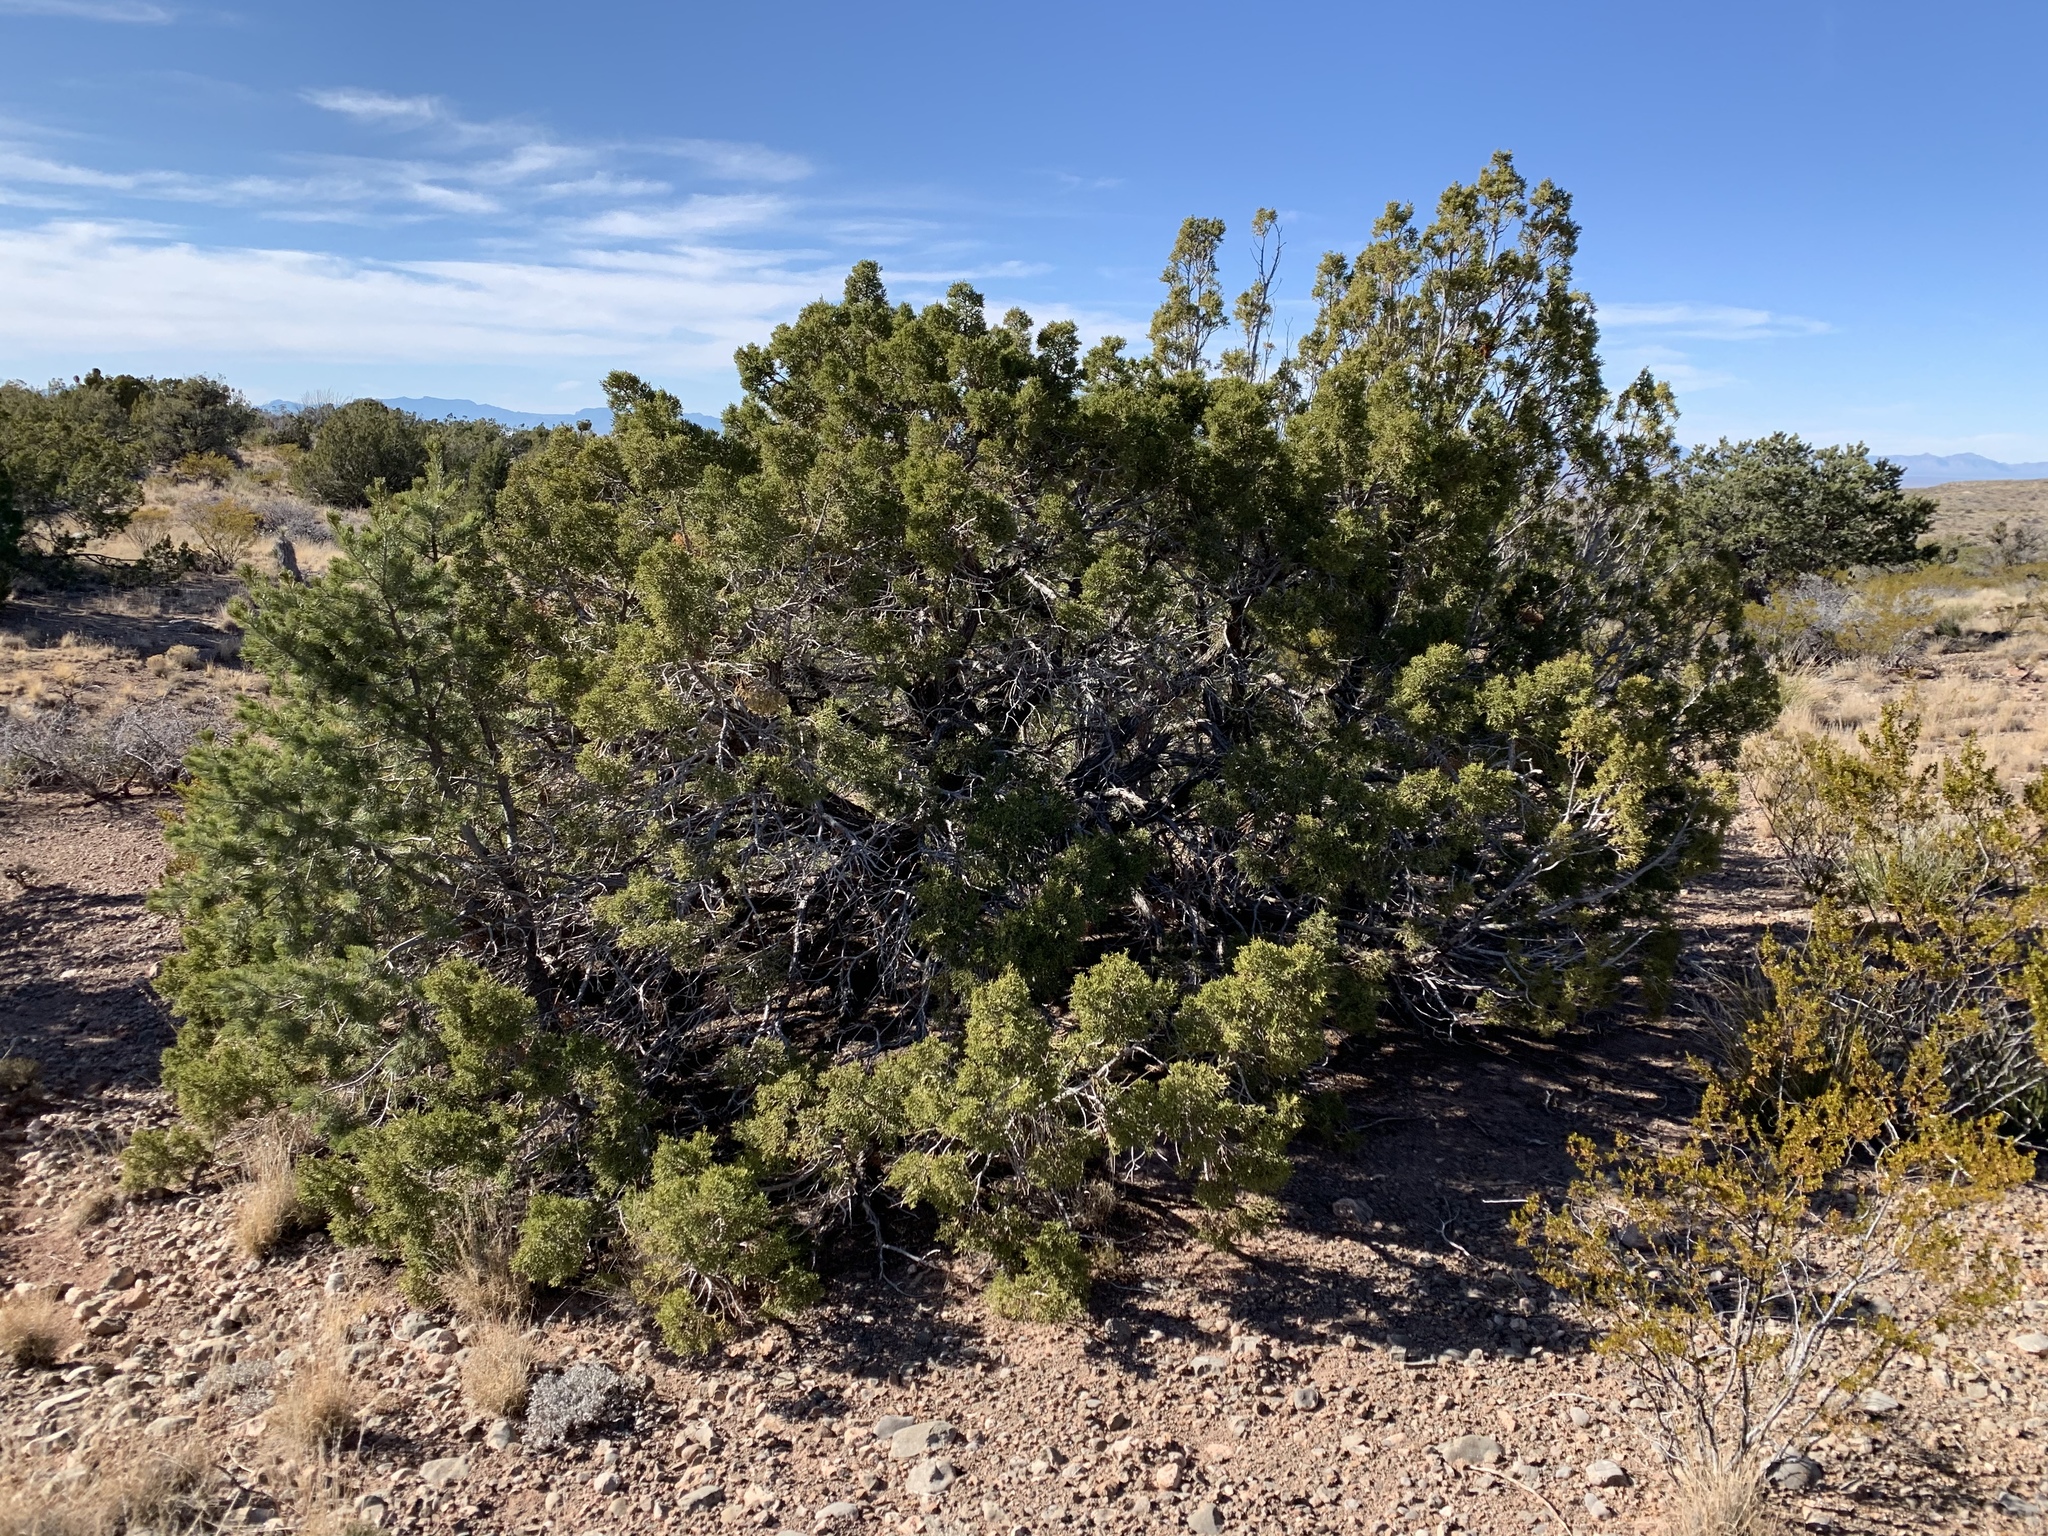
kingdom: Plantae
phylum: Tracheophyta
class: Pinopsida
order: Pinales
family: Cupressaceae
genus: Juniperus
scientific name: Juniperus monosperma
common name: One-seed juniper
